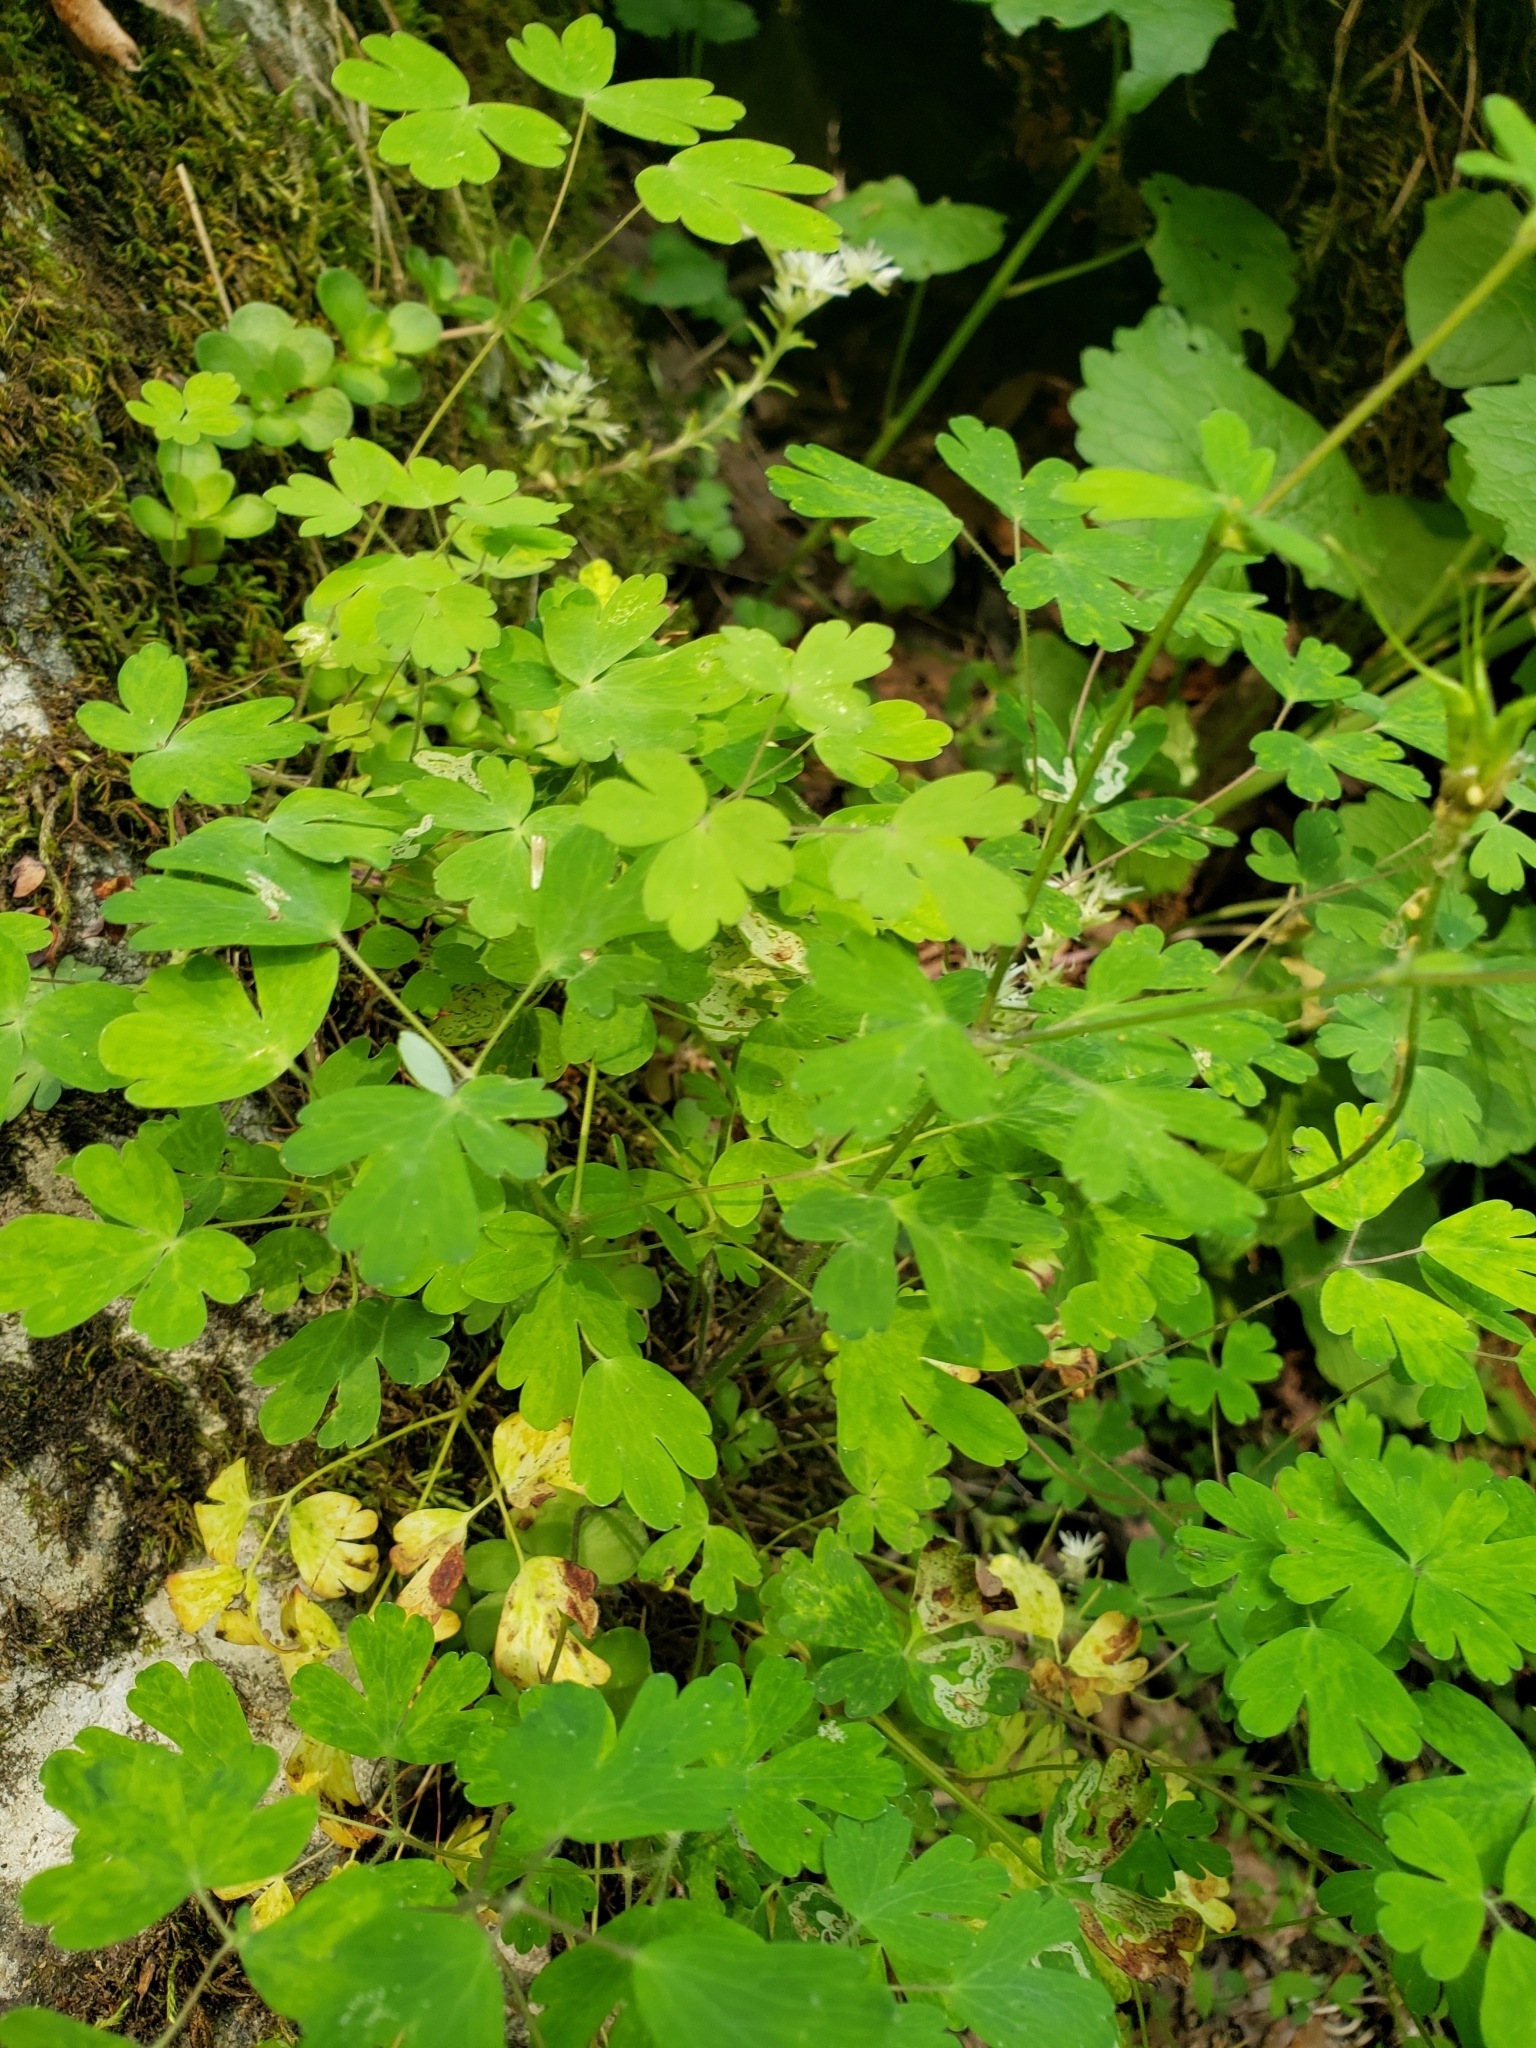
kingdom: Plantae
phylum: Tracheophyta
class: Magnoliopsida
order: Ranunculales
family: Ranunculaceae
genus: Aquilegia
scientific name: Aquilegia canadensis
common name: American columbine
